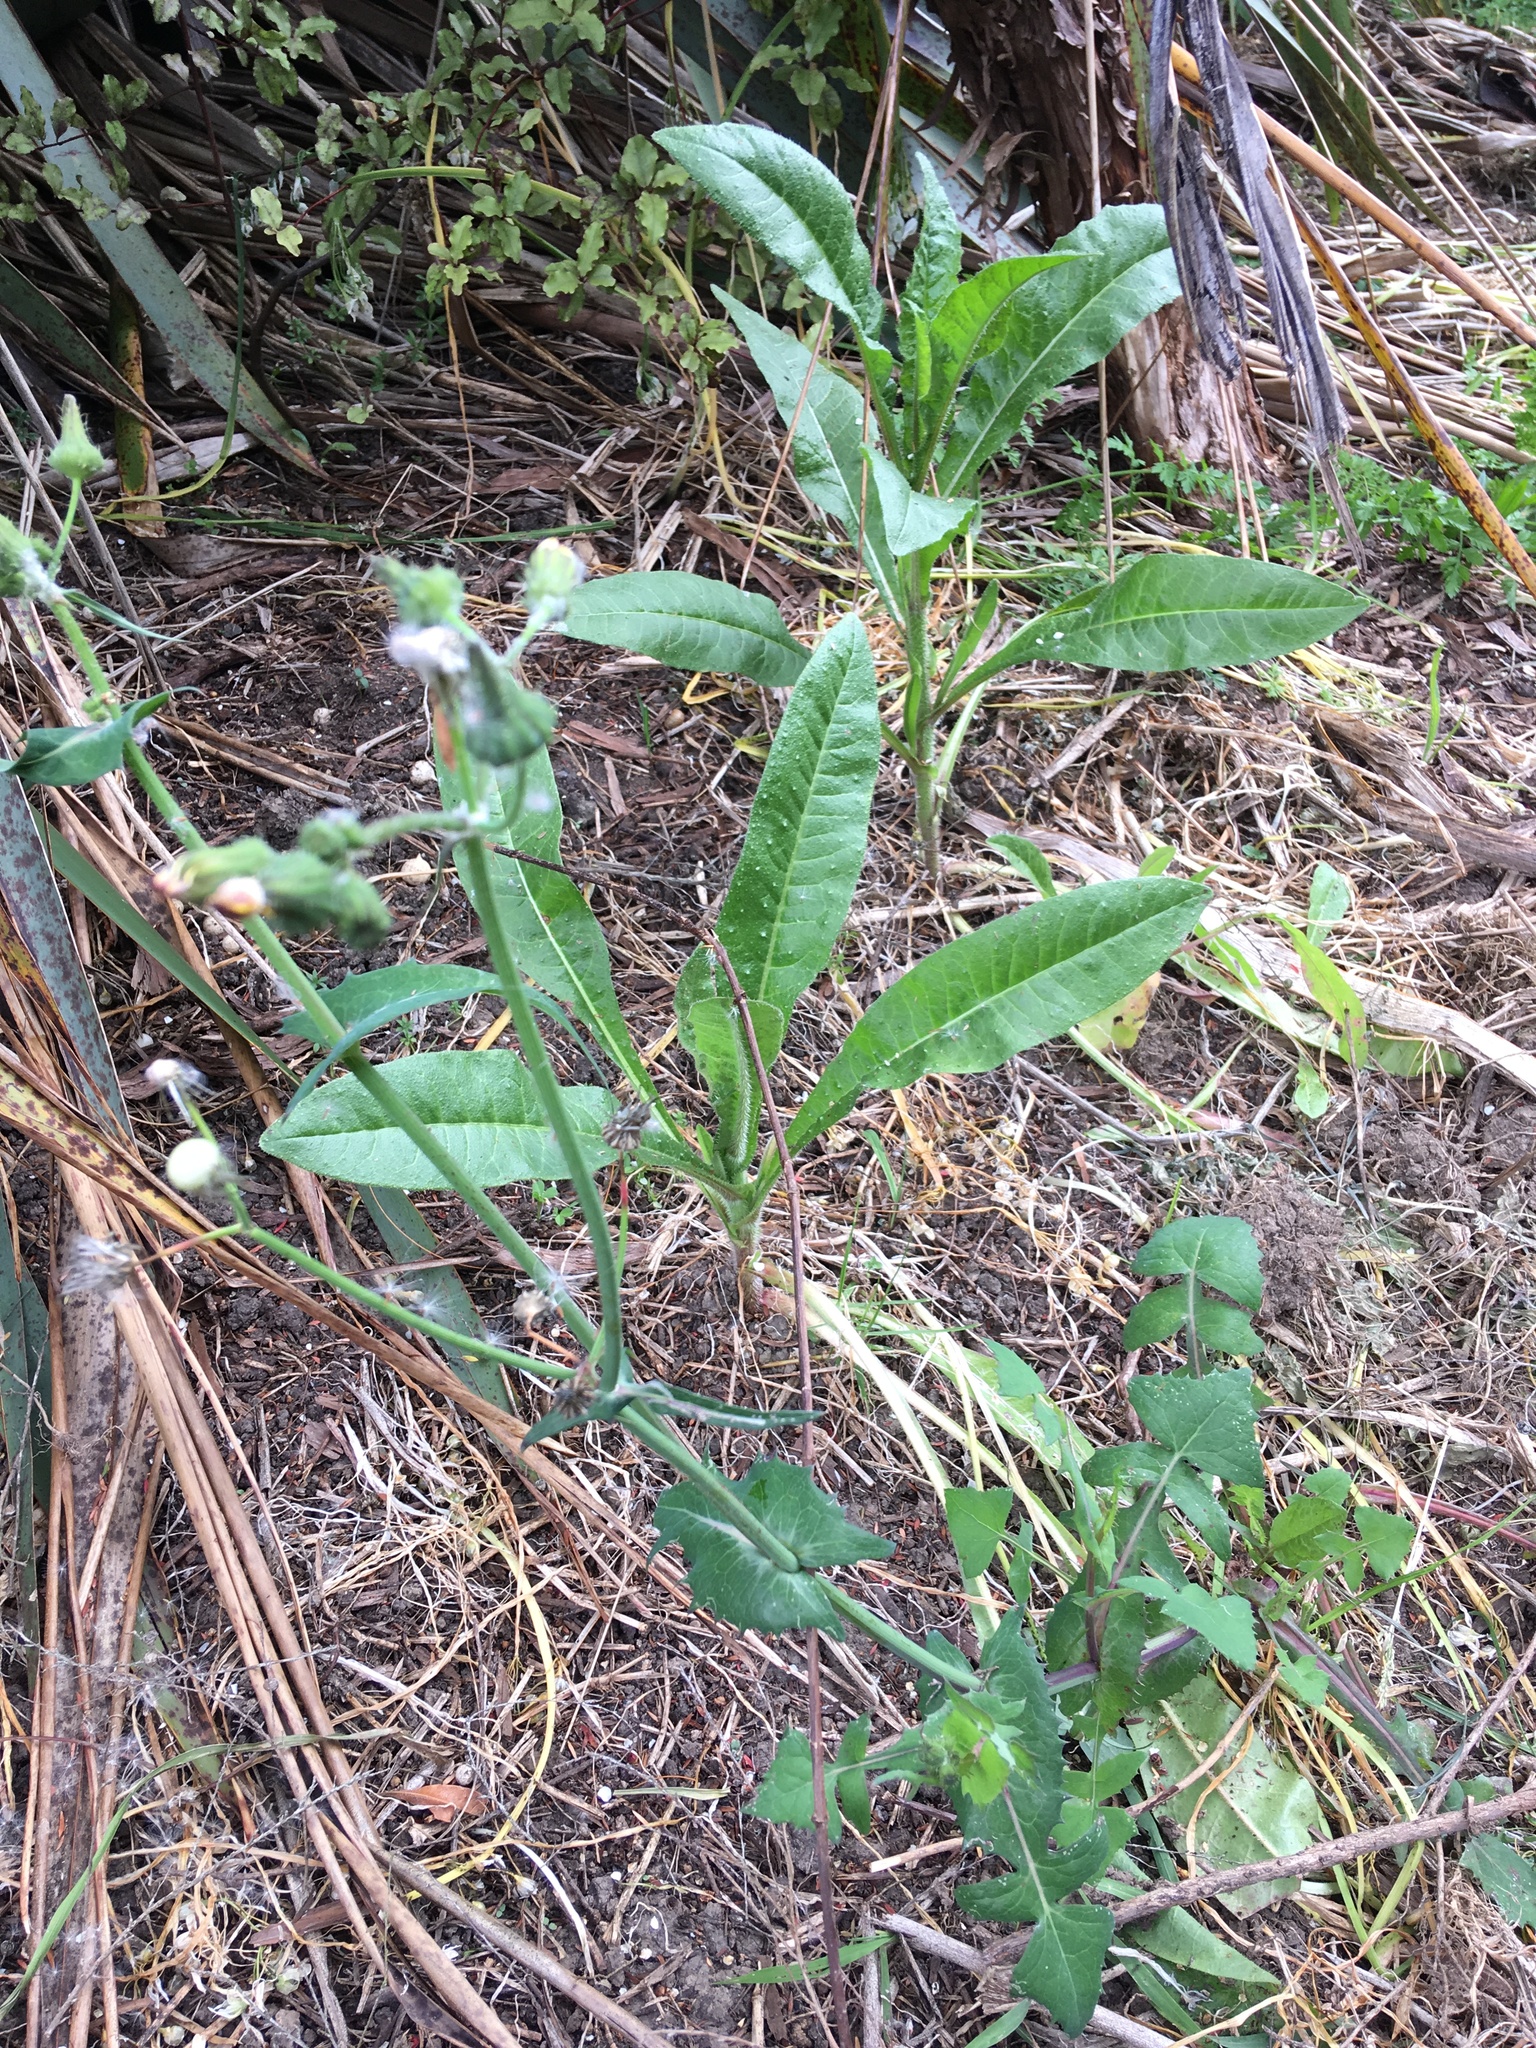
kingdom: Plantae
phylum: Tracheophyta
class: Magnoliopsida
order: Asterales
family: Asteraceae
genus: Sonchus
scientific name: Sonchus oleraceus
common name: Common sowthistle
